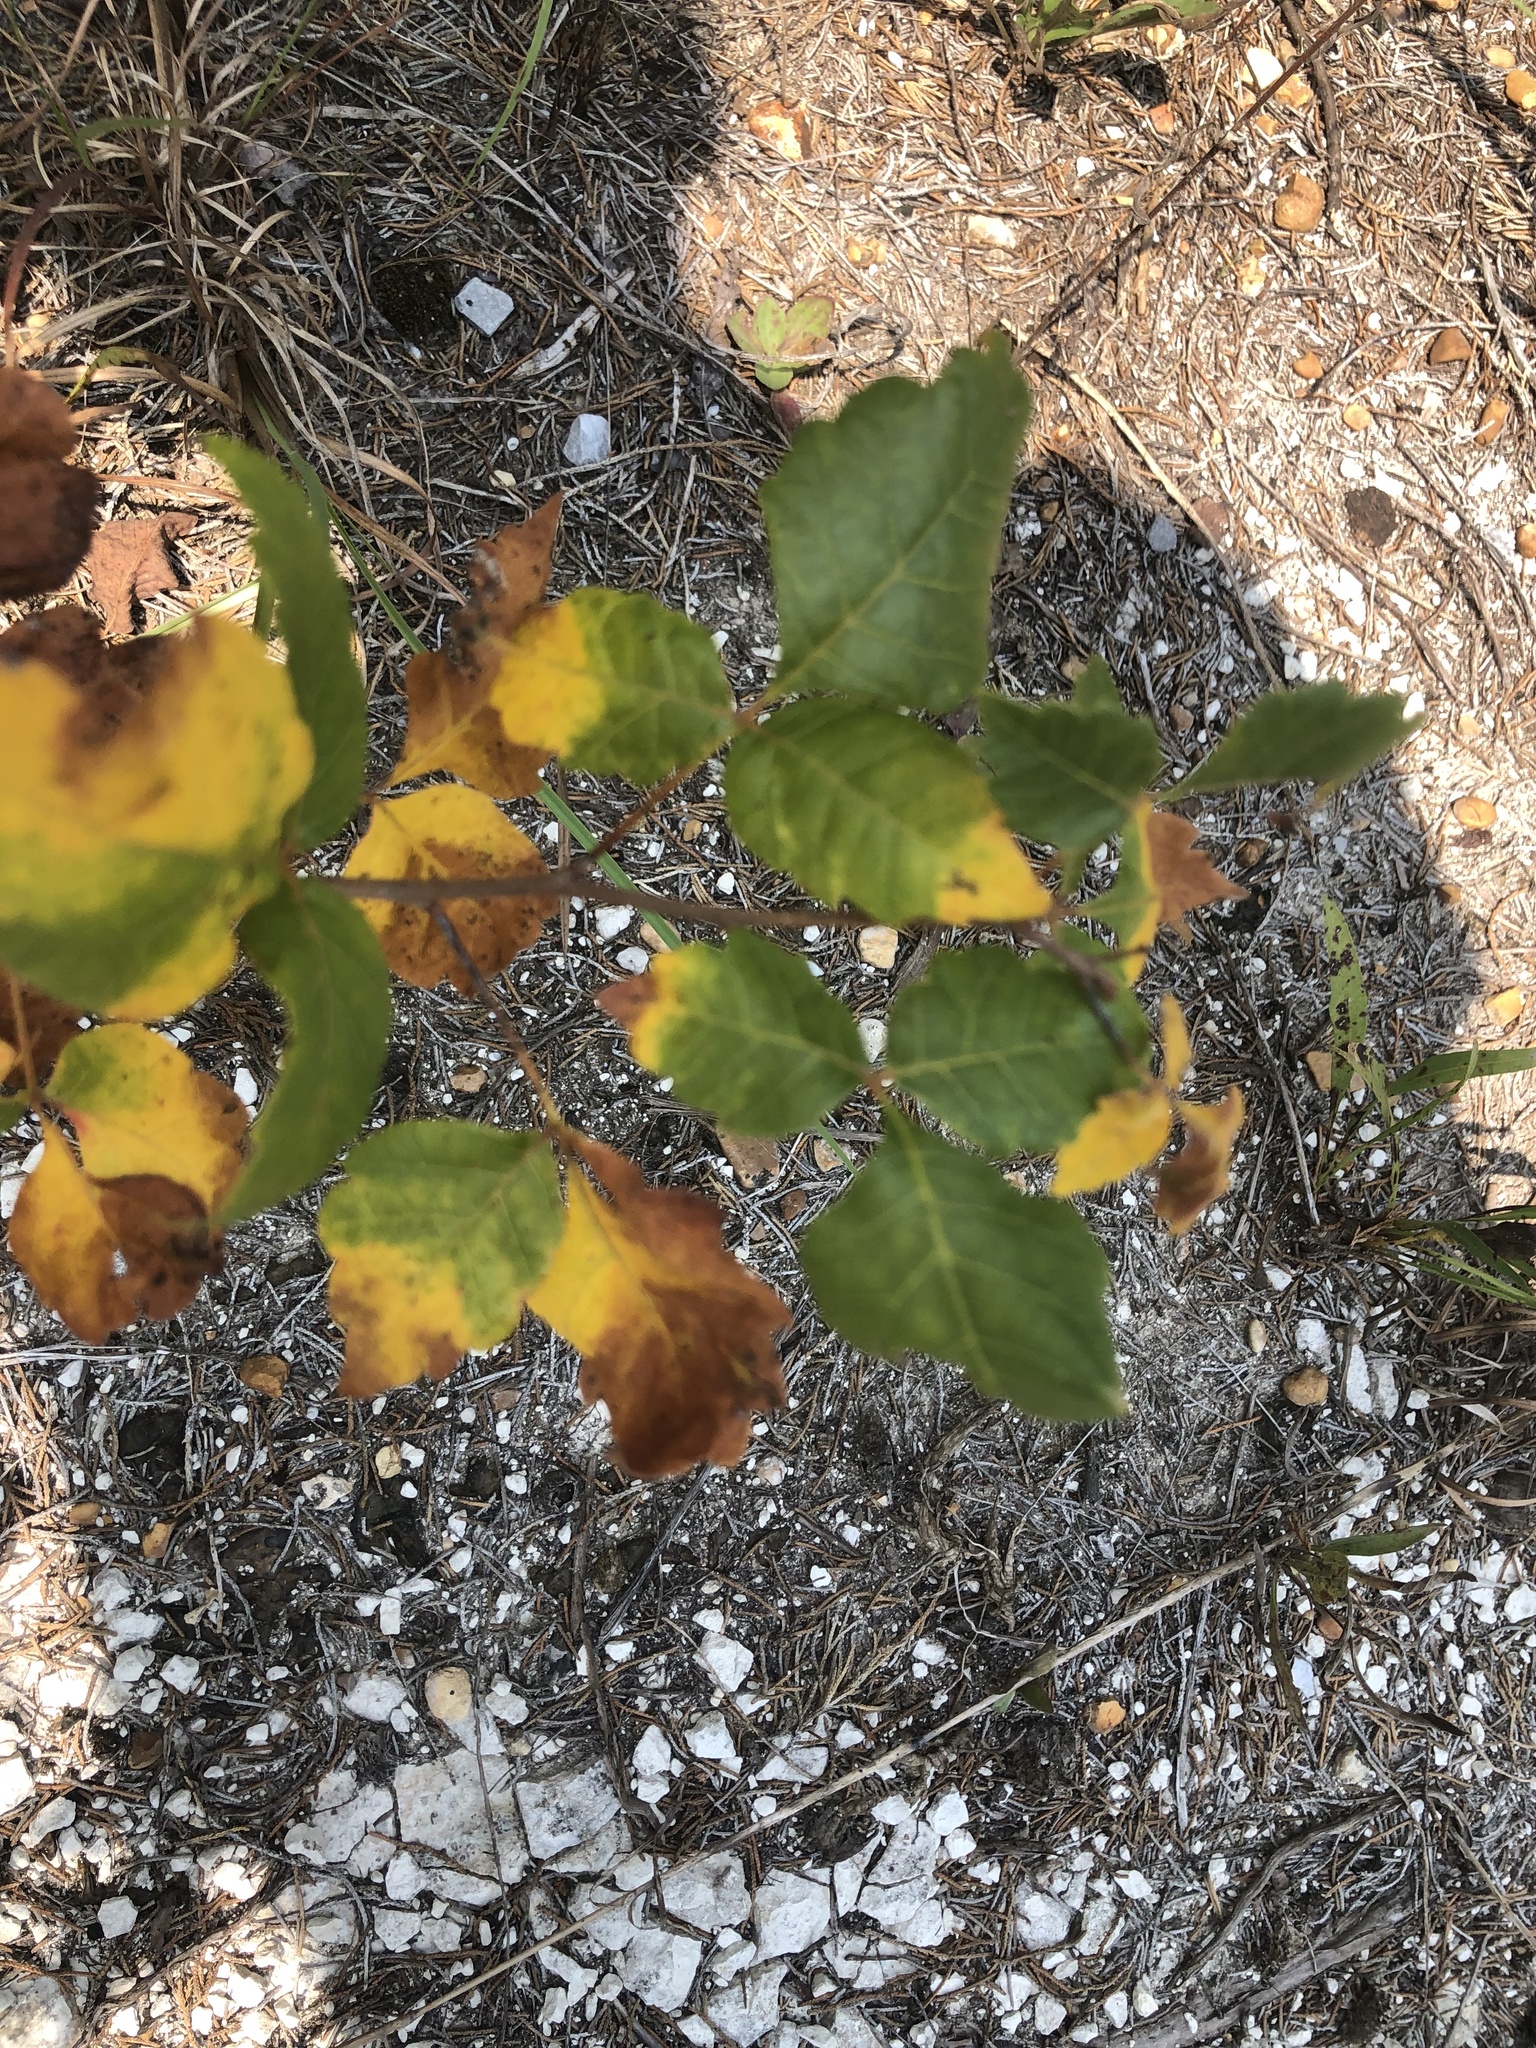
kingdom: Plantae
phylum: Tracheophyta
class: Magnoliopsida
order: Sapindales
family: Anacardiaceae
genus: Rhus
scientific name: Rhus aromatica
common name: Aromatic sumac
